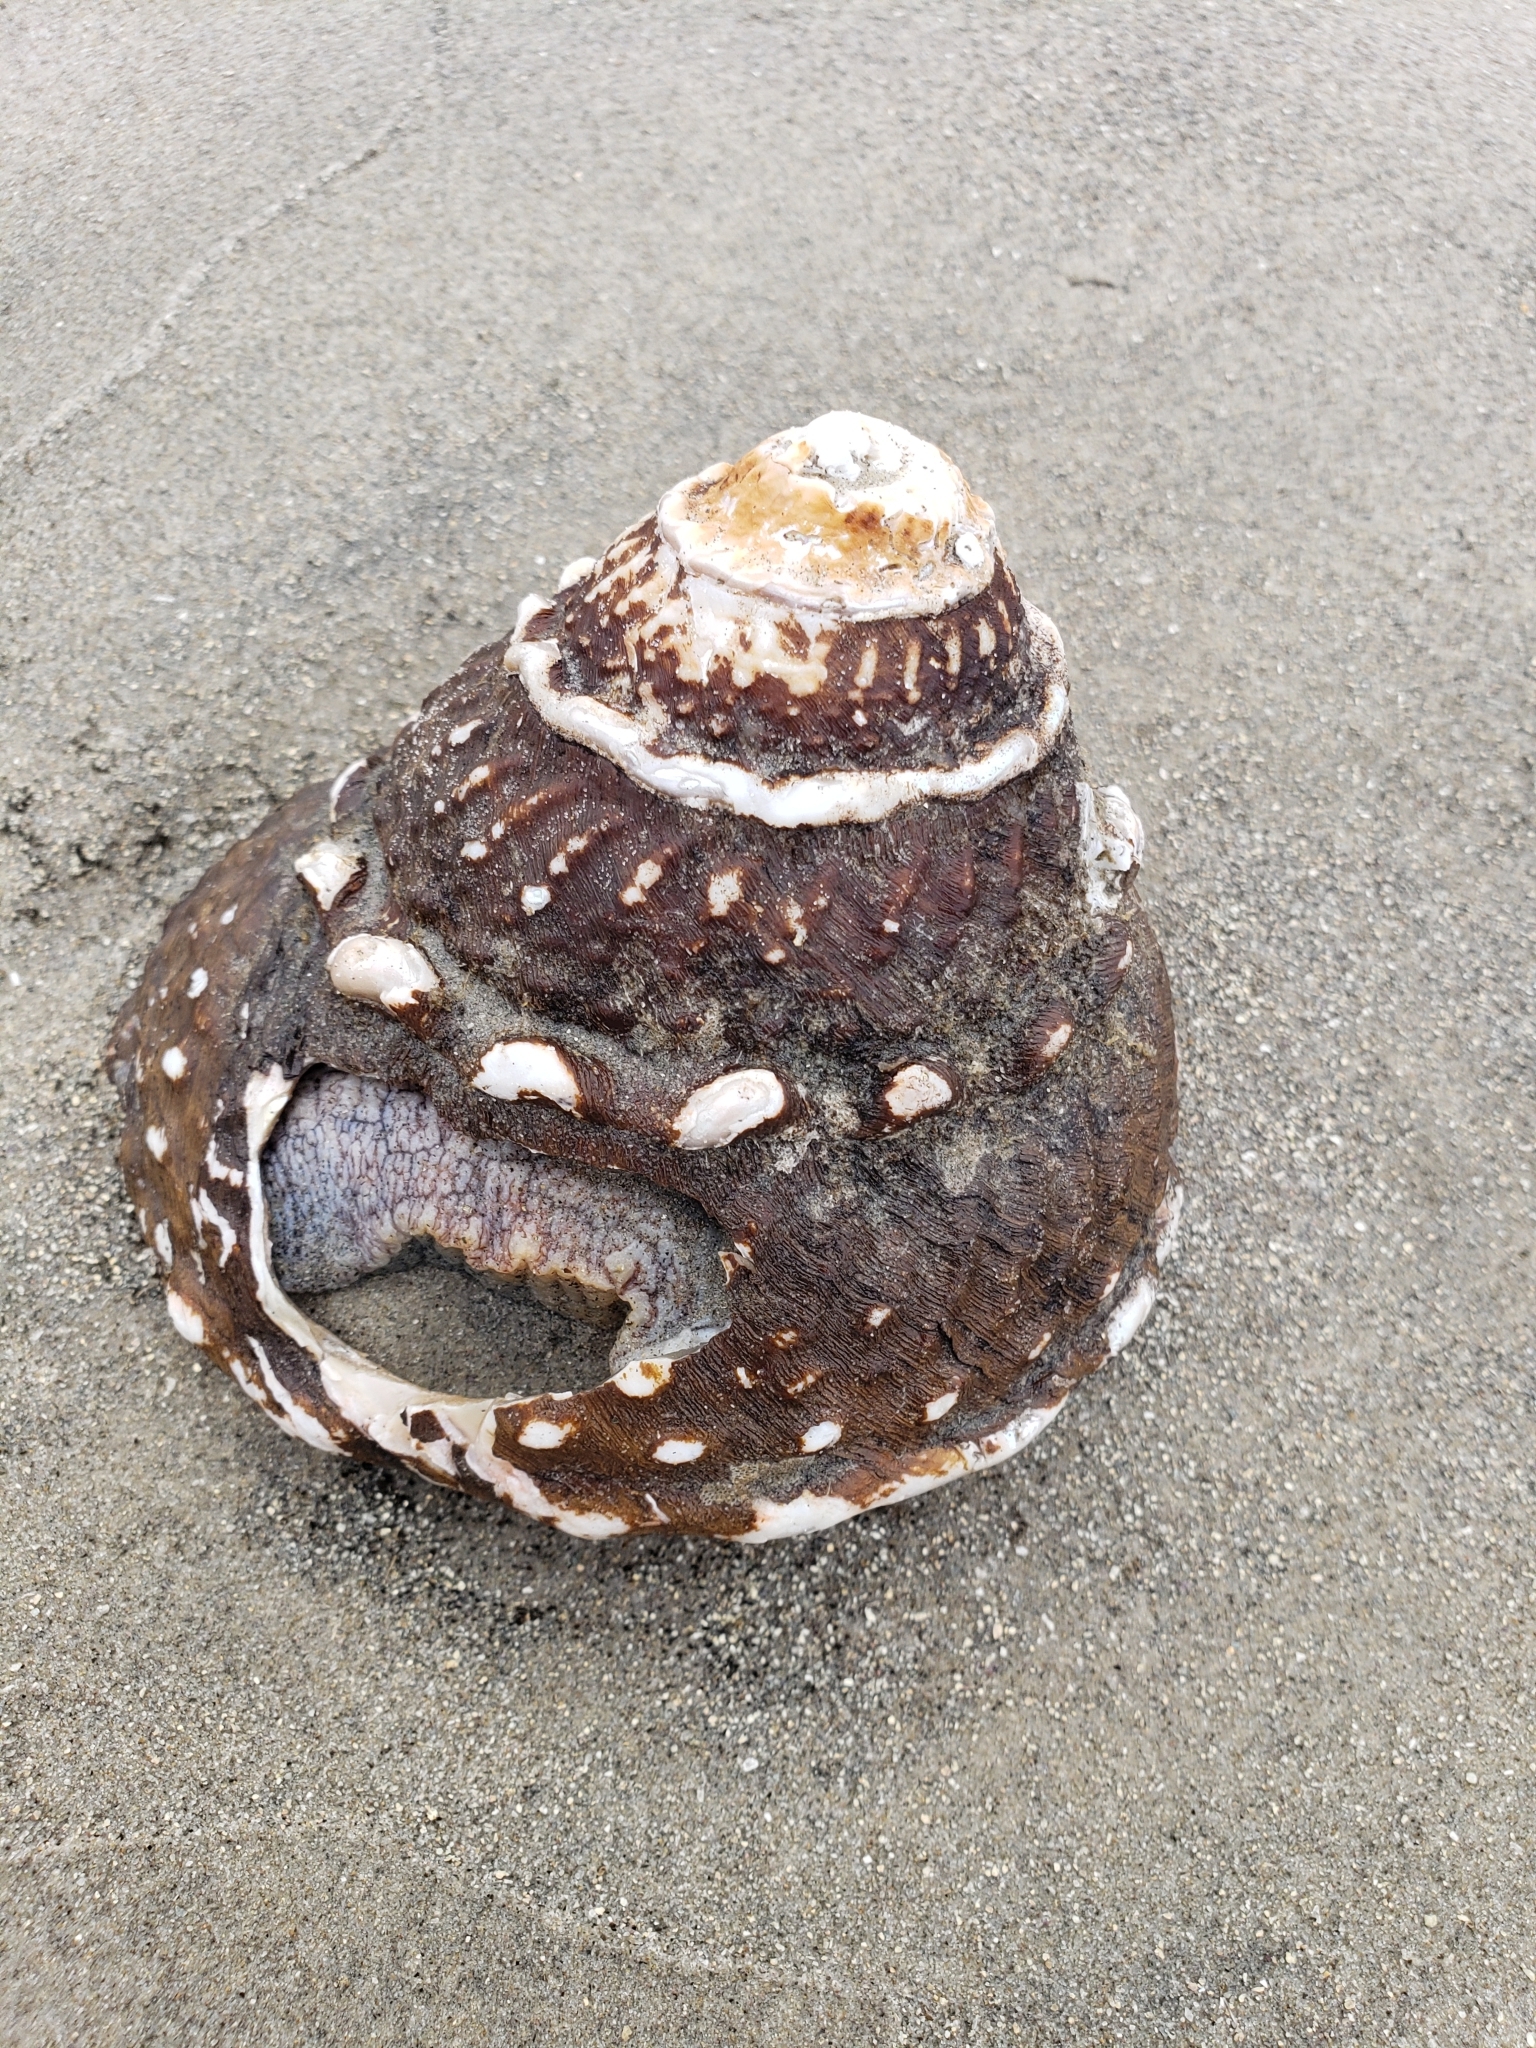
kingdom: Animalia
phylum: Mollusca
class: Gastropoda
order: Trochida
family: Turbinidae
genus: Megastraea
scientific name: Megastraea undosa
